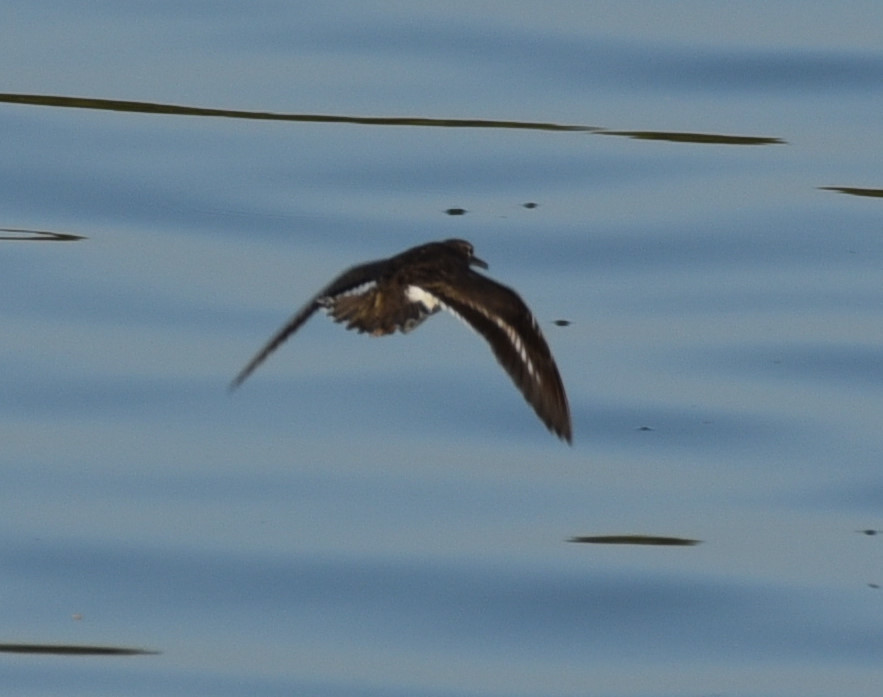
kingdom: Animalia
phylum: Chordata
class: Aves
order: Charadriiformes
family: Scolopacidae
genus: Actitis
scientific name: Actitis macularius
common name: Spotted sandpiper
